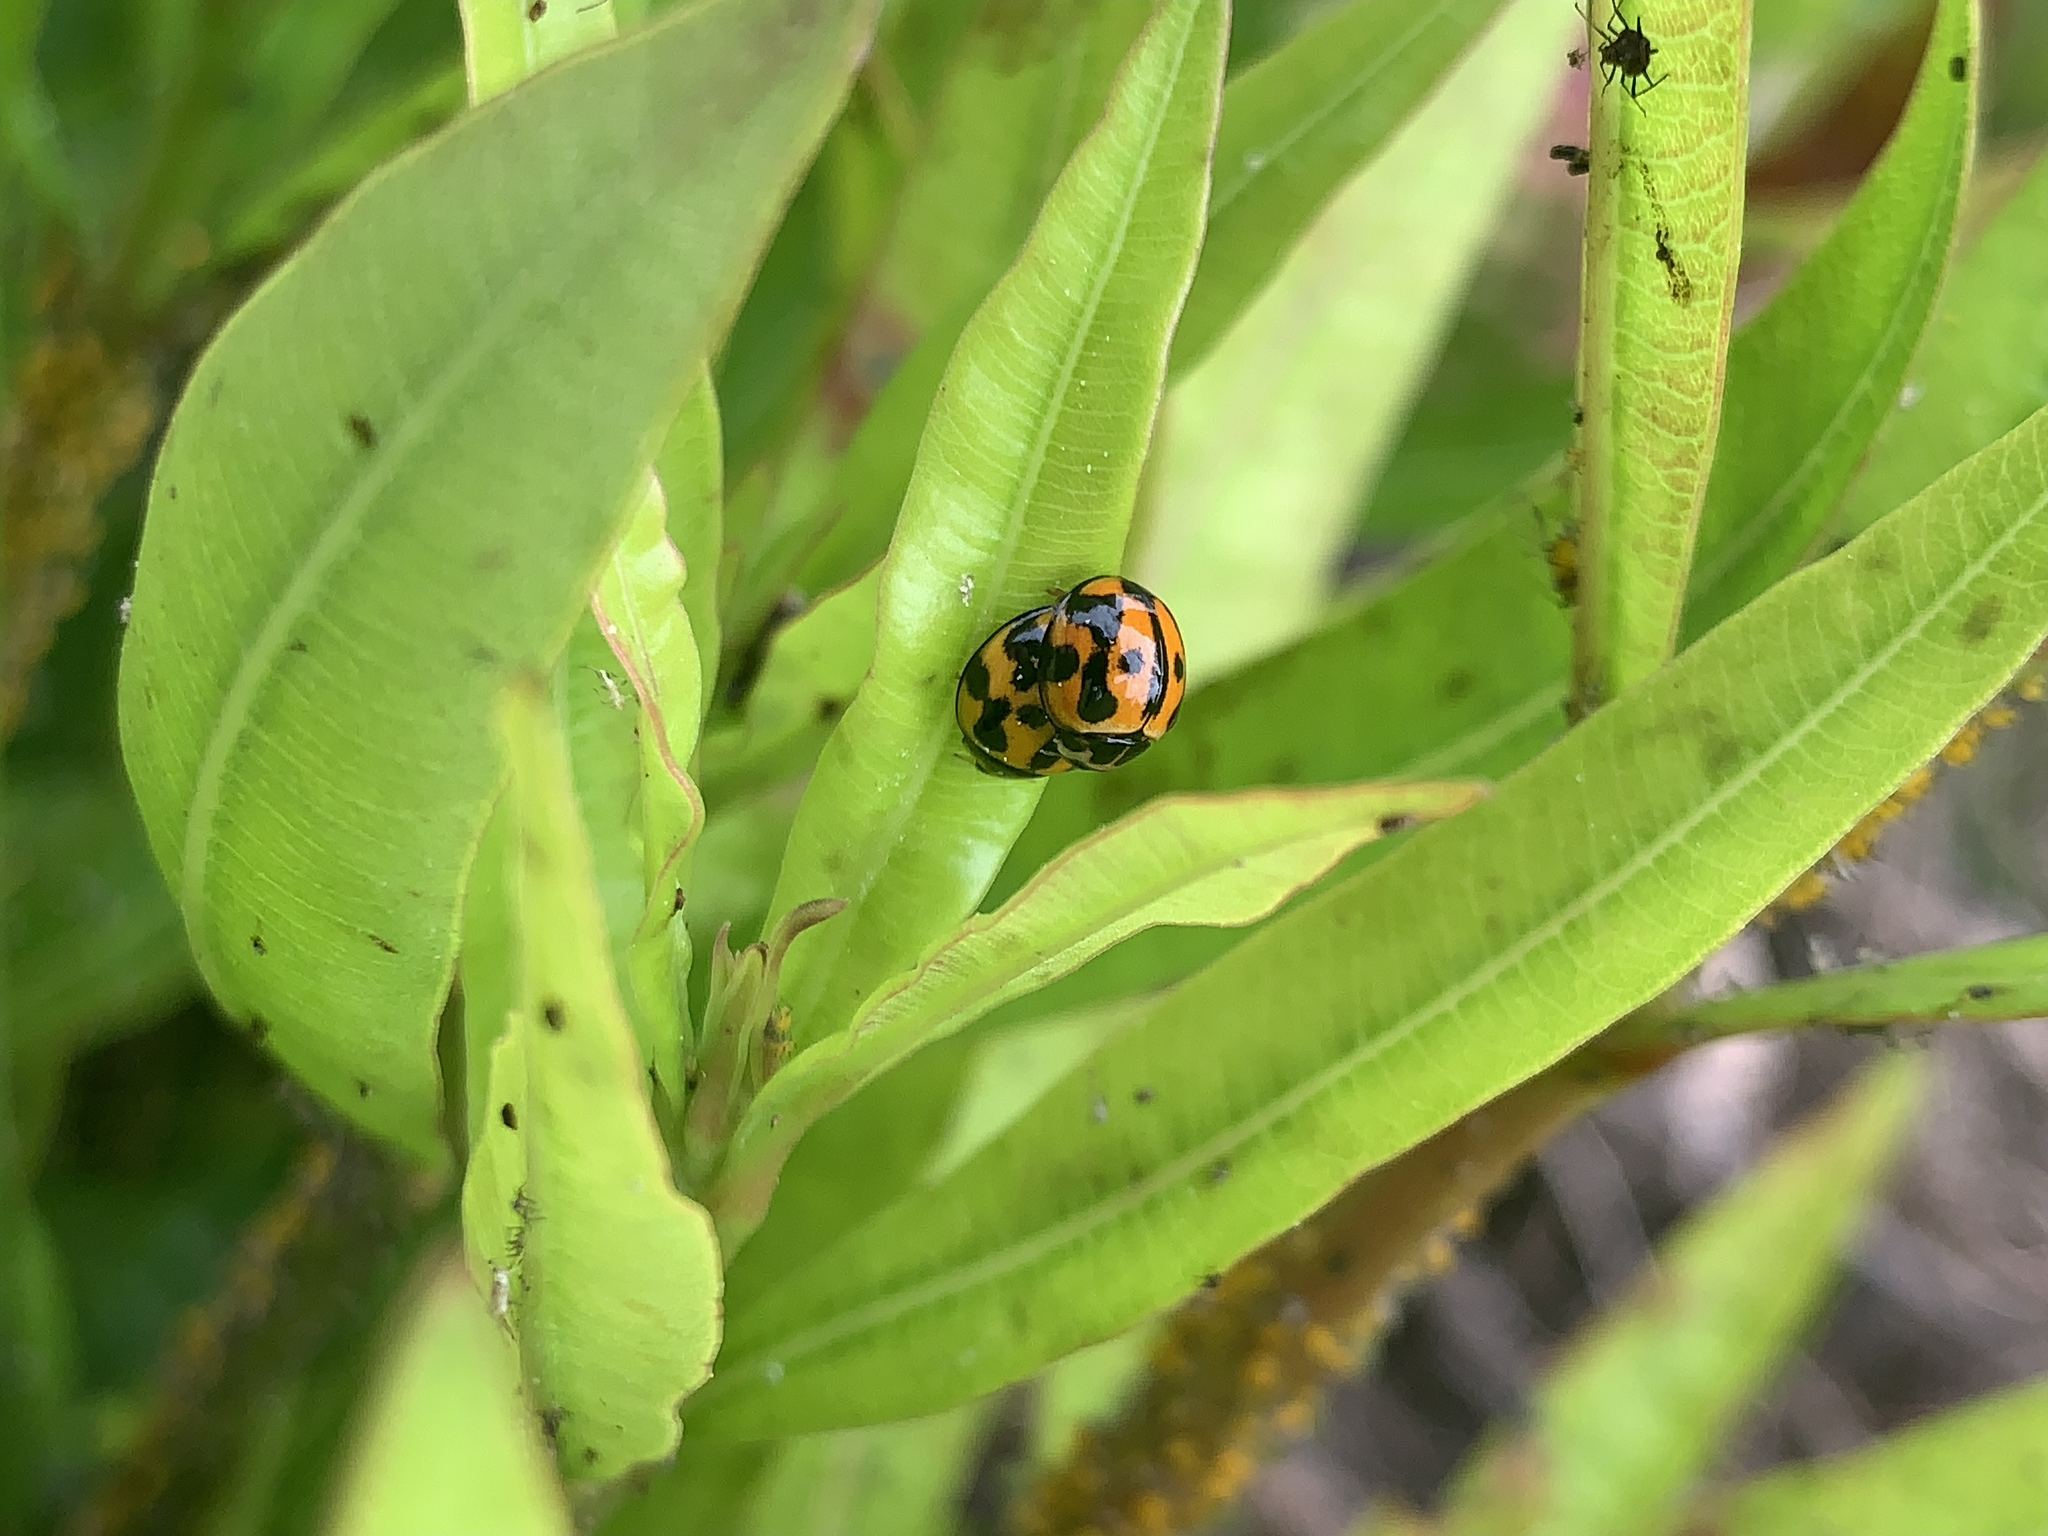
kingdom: Animalia
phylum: Arthropoda
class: Insecta
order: Coleoptera
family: Coccinellidae
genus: Coelophora
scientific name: Coelophora inaequalis
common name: Common australian lady beetle
